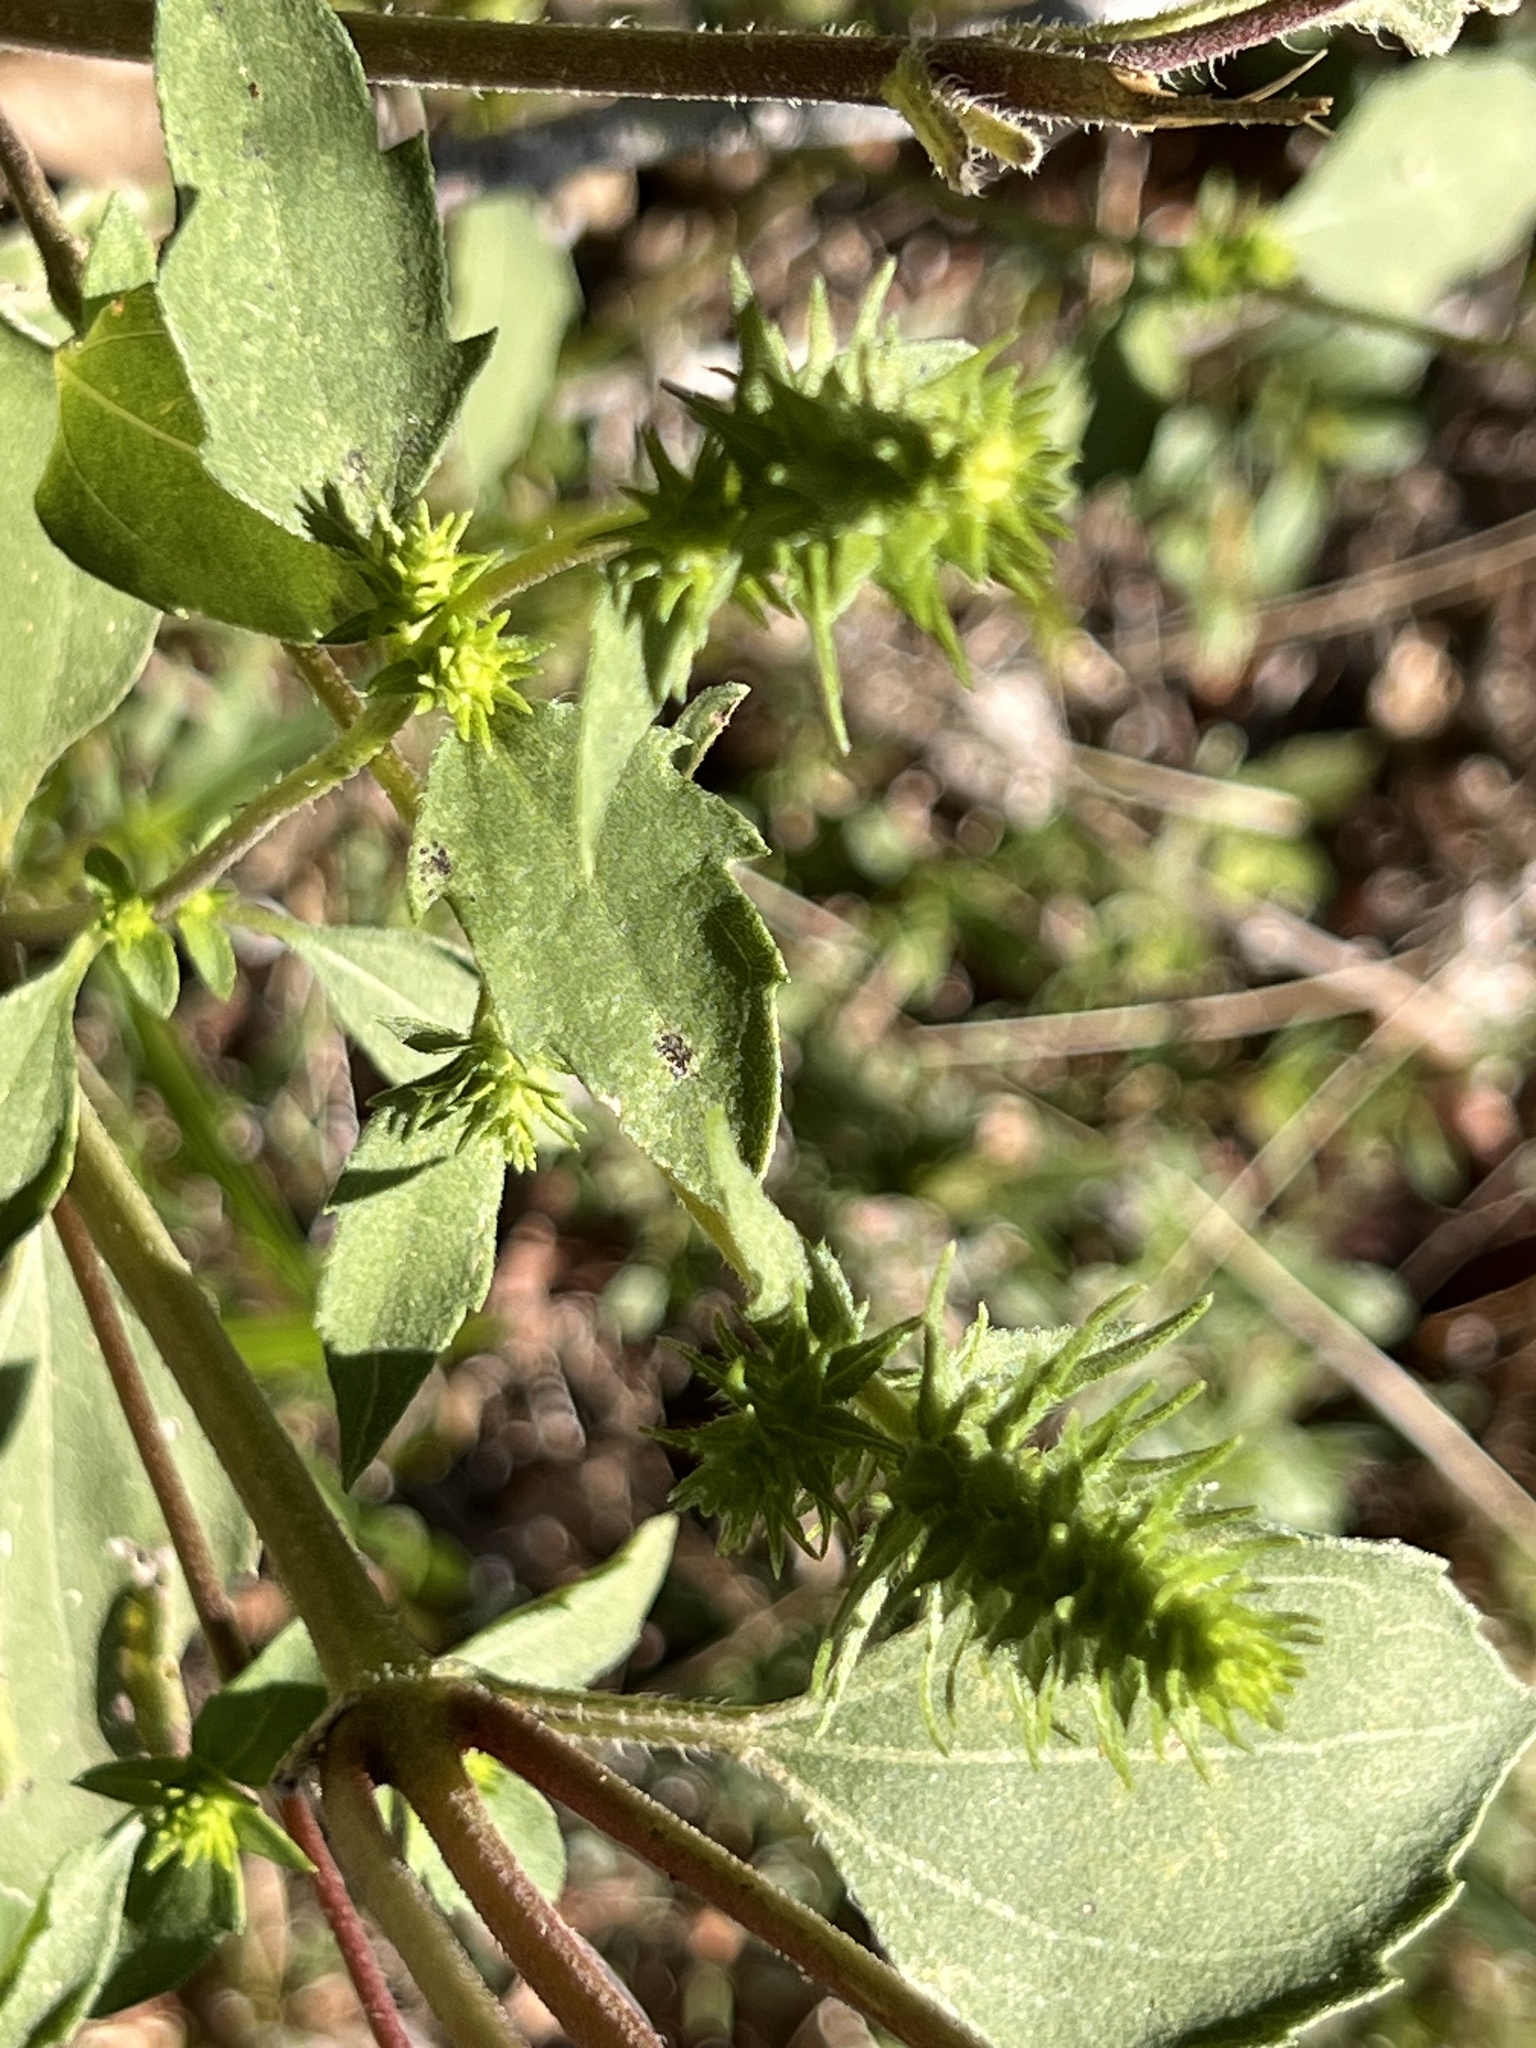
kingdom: Plantae
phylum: Tracheophyta
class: Magnoliopsida
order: Asterales
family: Asteraceae
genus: Iva
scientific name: Iva annua
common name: Marsh-elder
